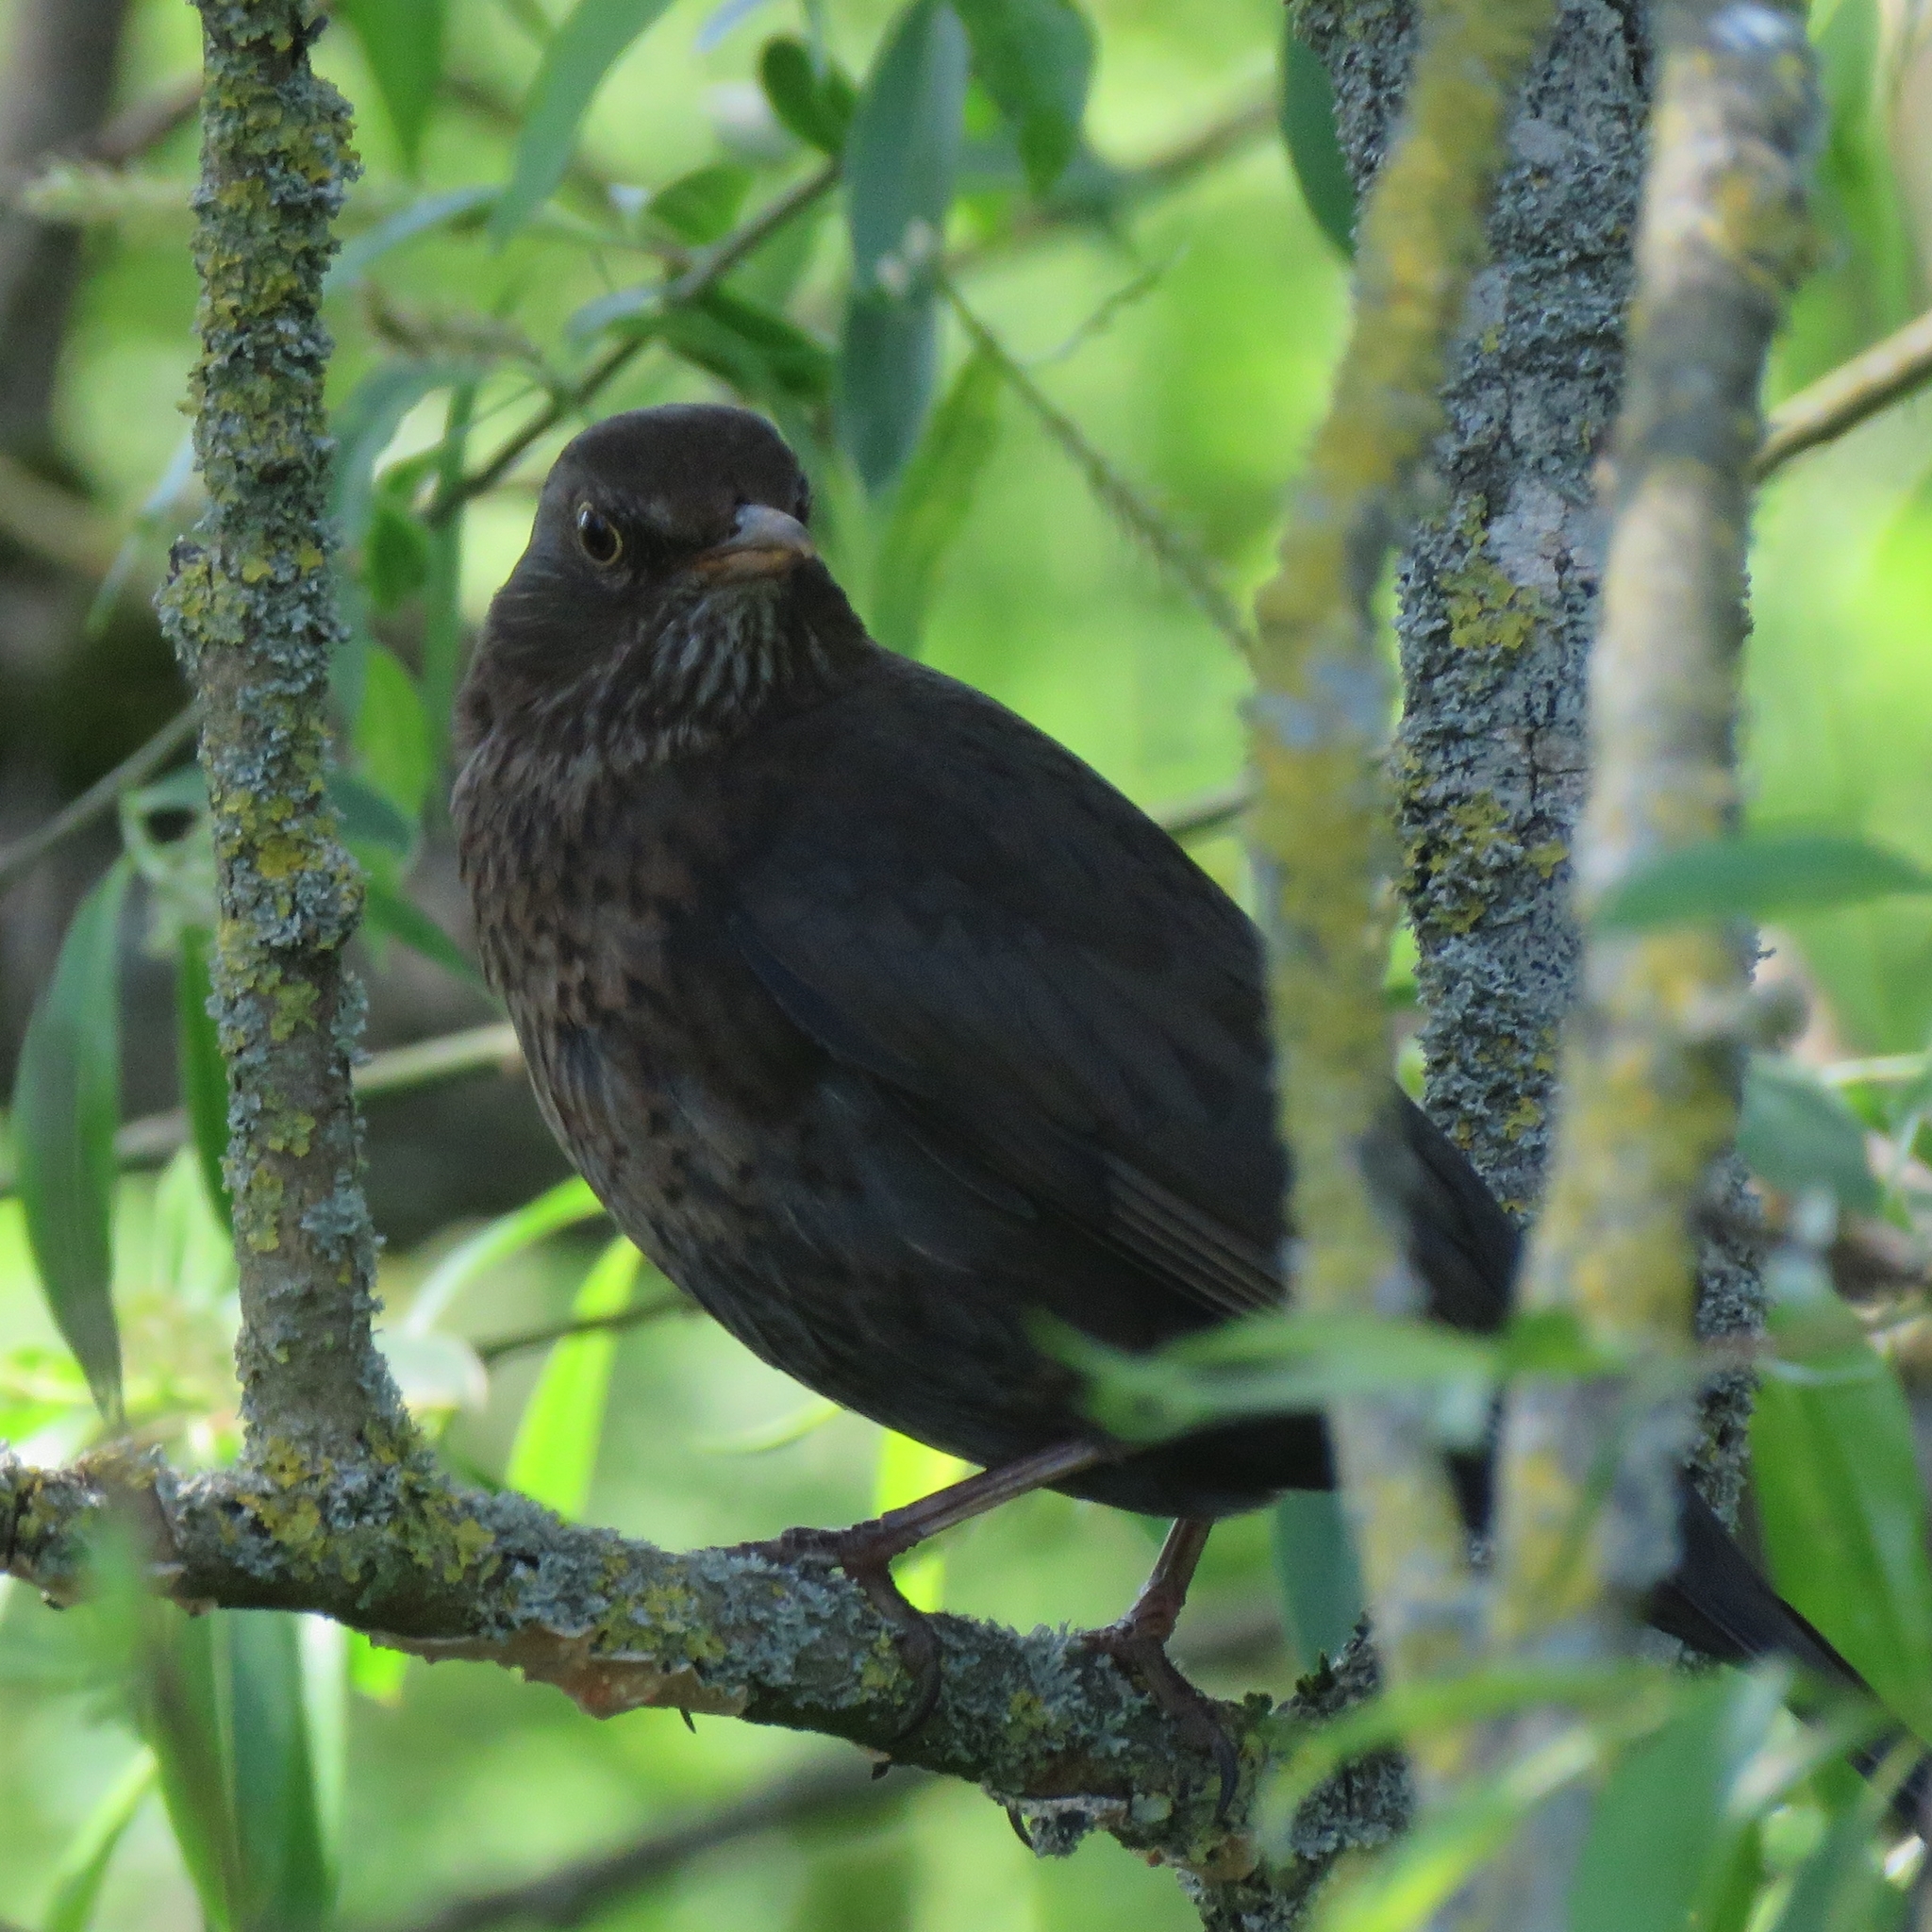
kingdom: Animalia
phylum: Chordata
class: Aves
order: Passeriformes
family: Turdidae
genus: Turdus
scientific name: Turdus merula
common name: Common blackbird
